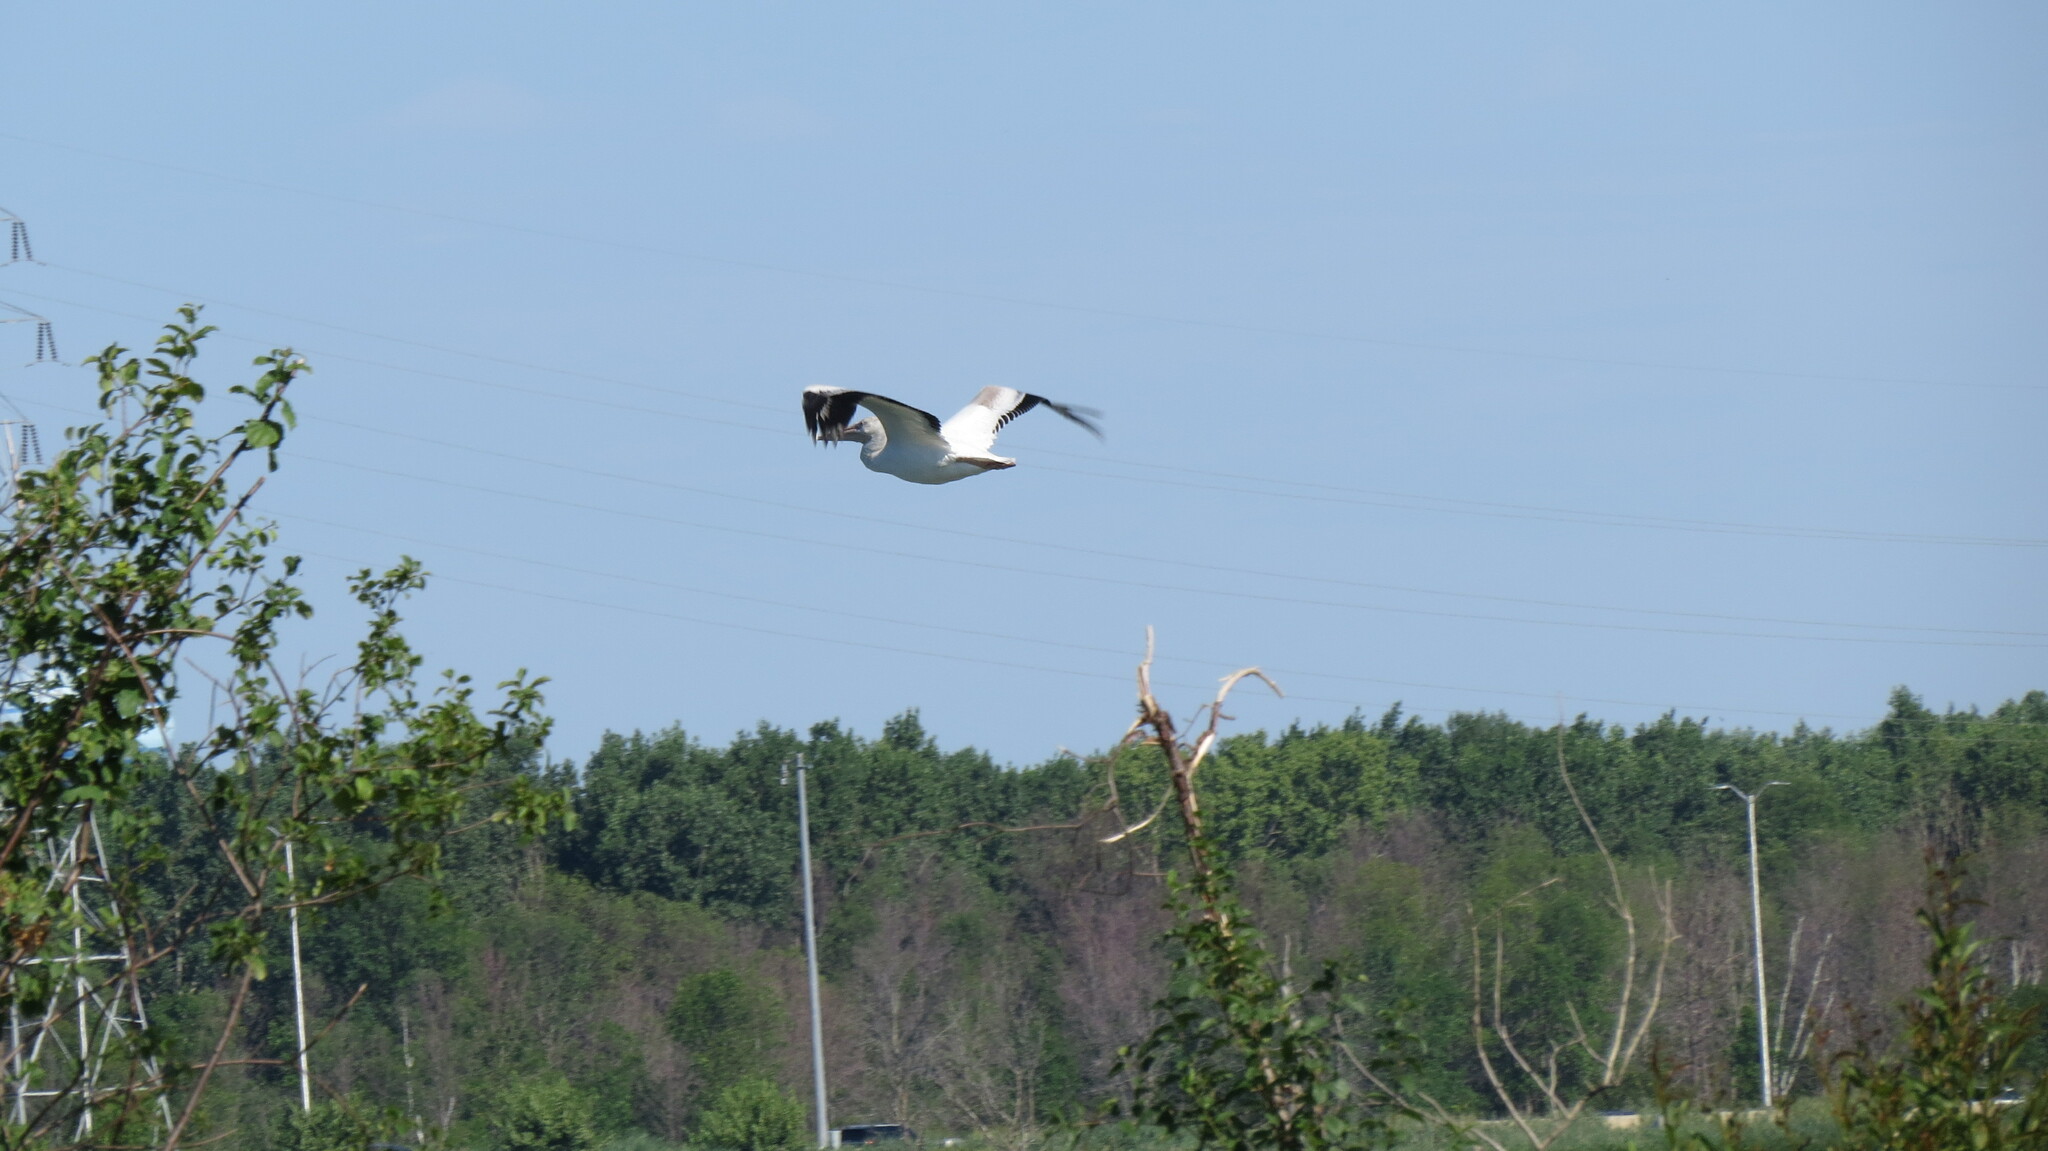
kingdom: Animalia
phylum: Chordata
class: Aves
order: Pelecaniformes
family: Pelecanidae
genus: Pelecanus
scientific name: Pelecanus erythrorhynchos
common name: American white pelican
